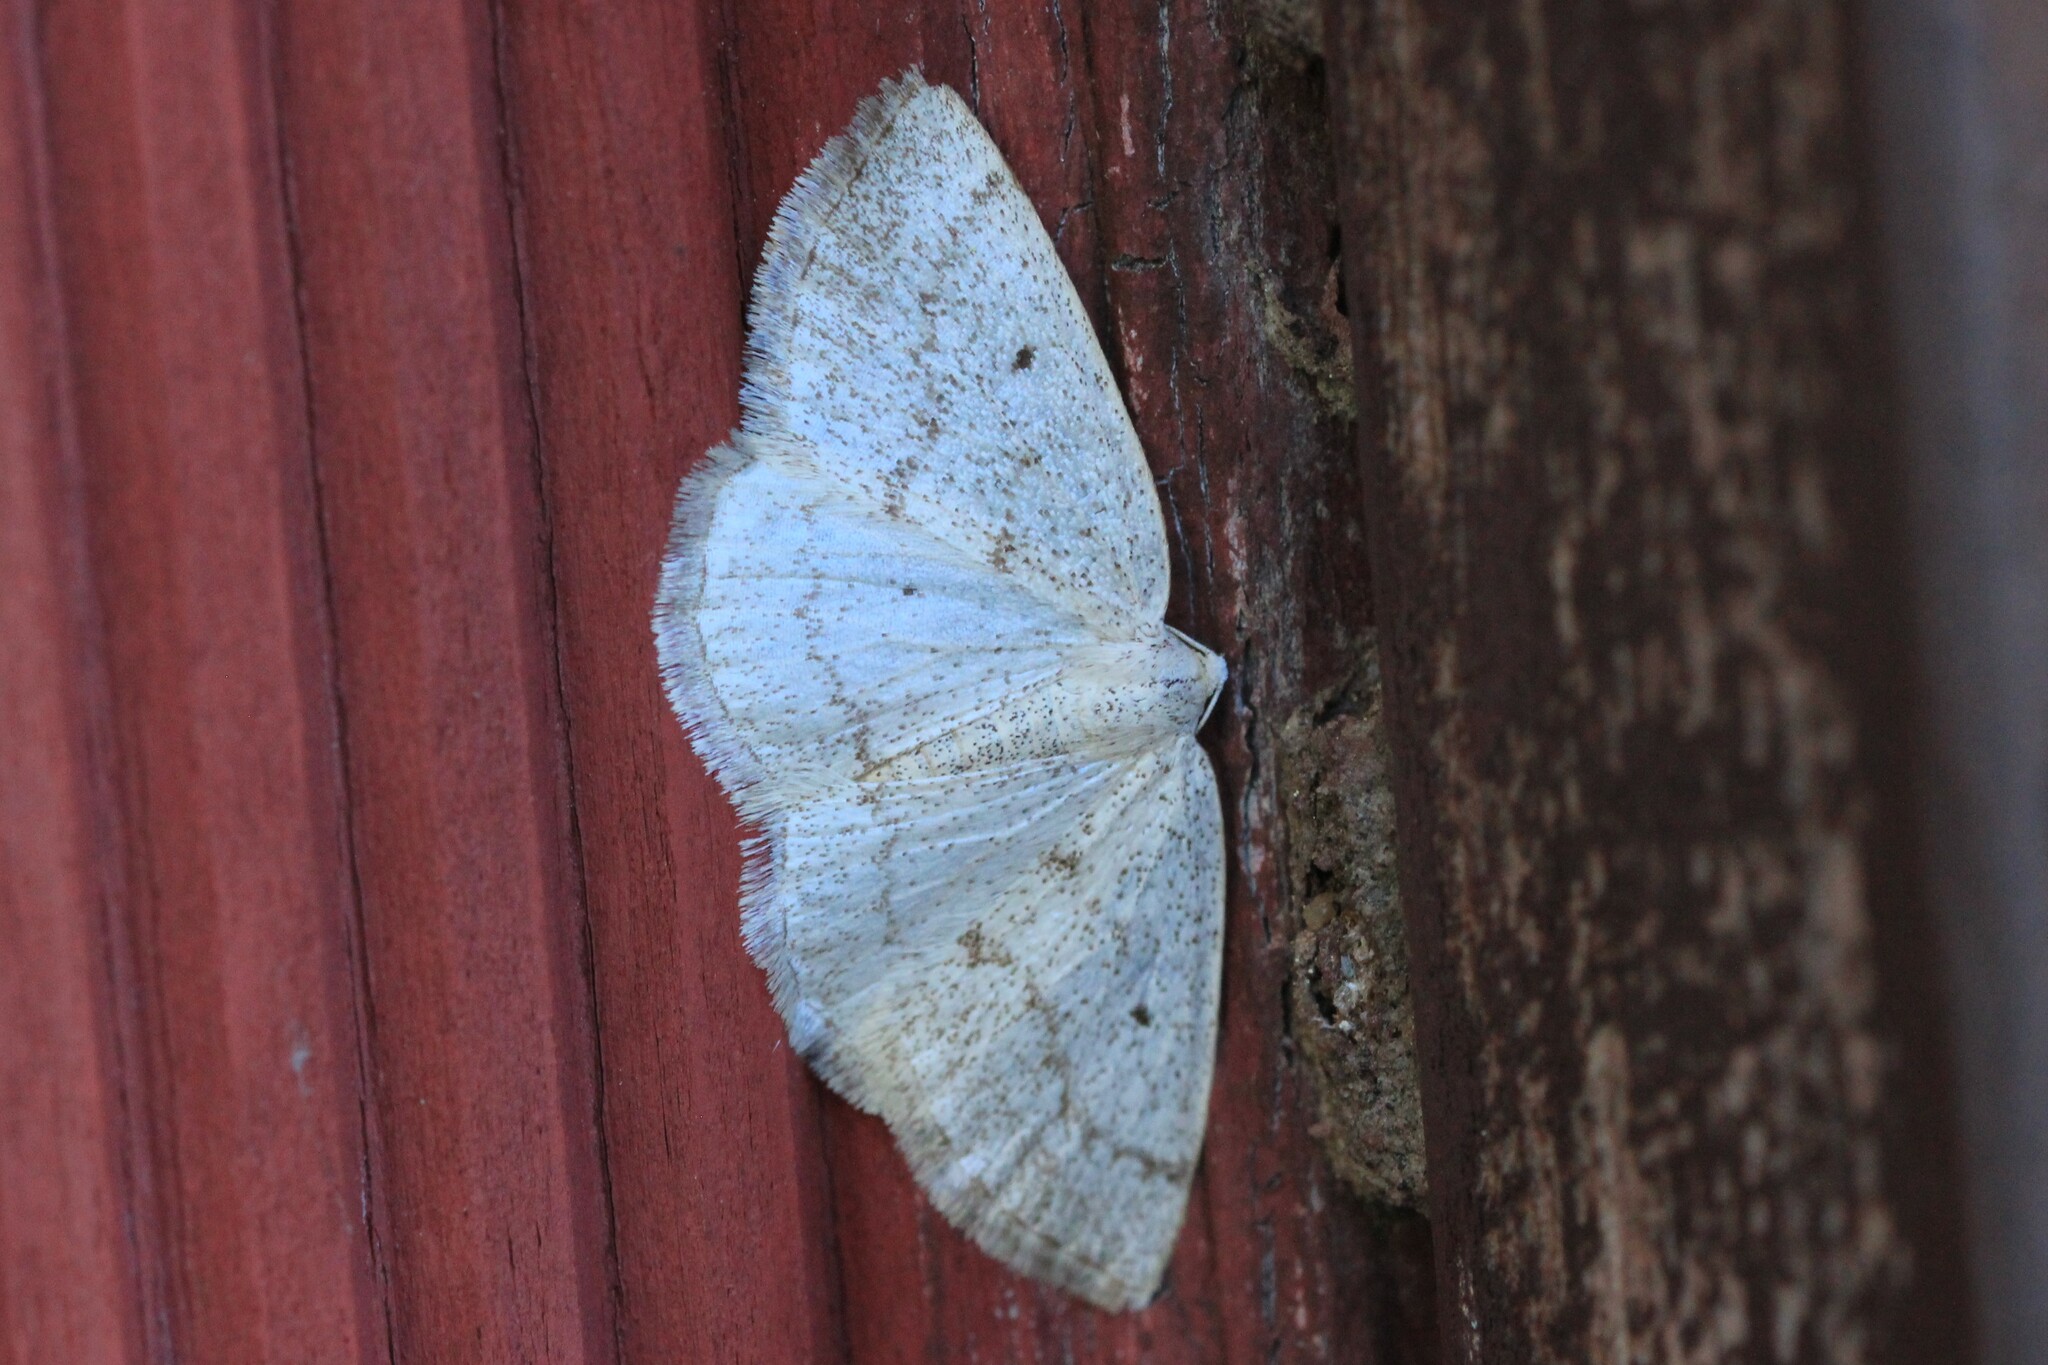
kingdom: Animalia
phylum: Arthropoda
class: Insecta
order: Lepidoptera
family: Geometridae
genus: Lomographa
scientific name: Lomographa glomeraria
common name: Gray spring moth
